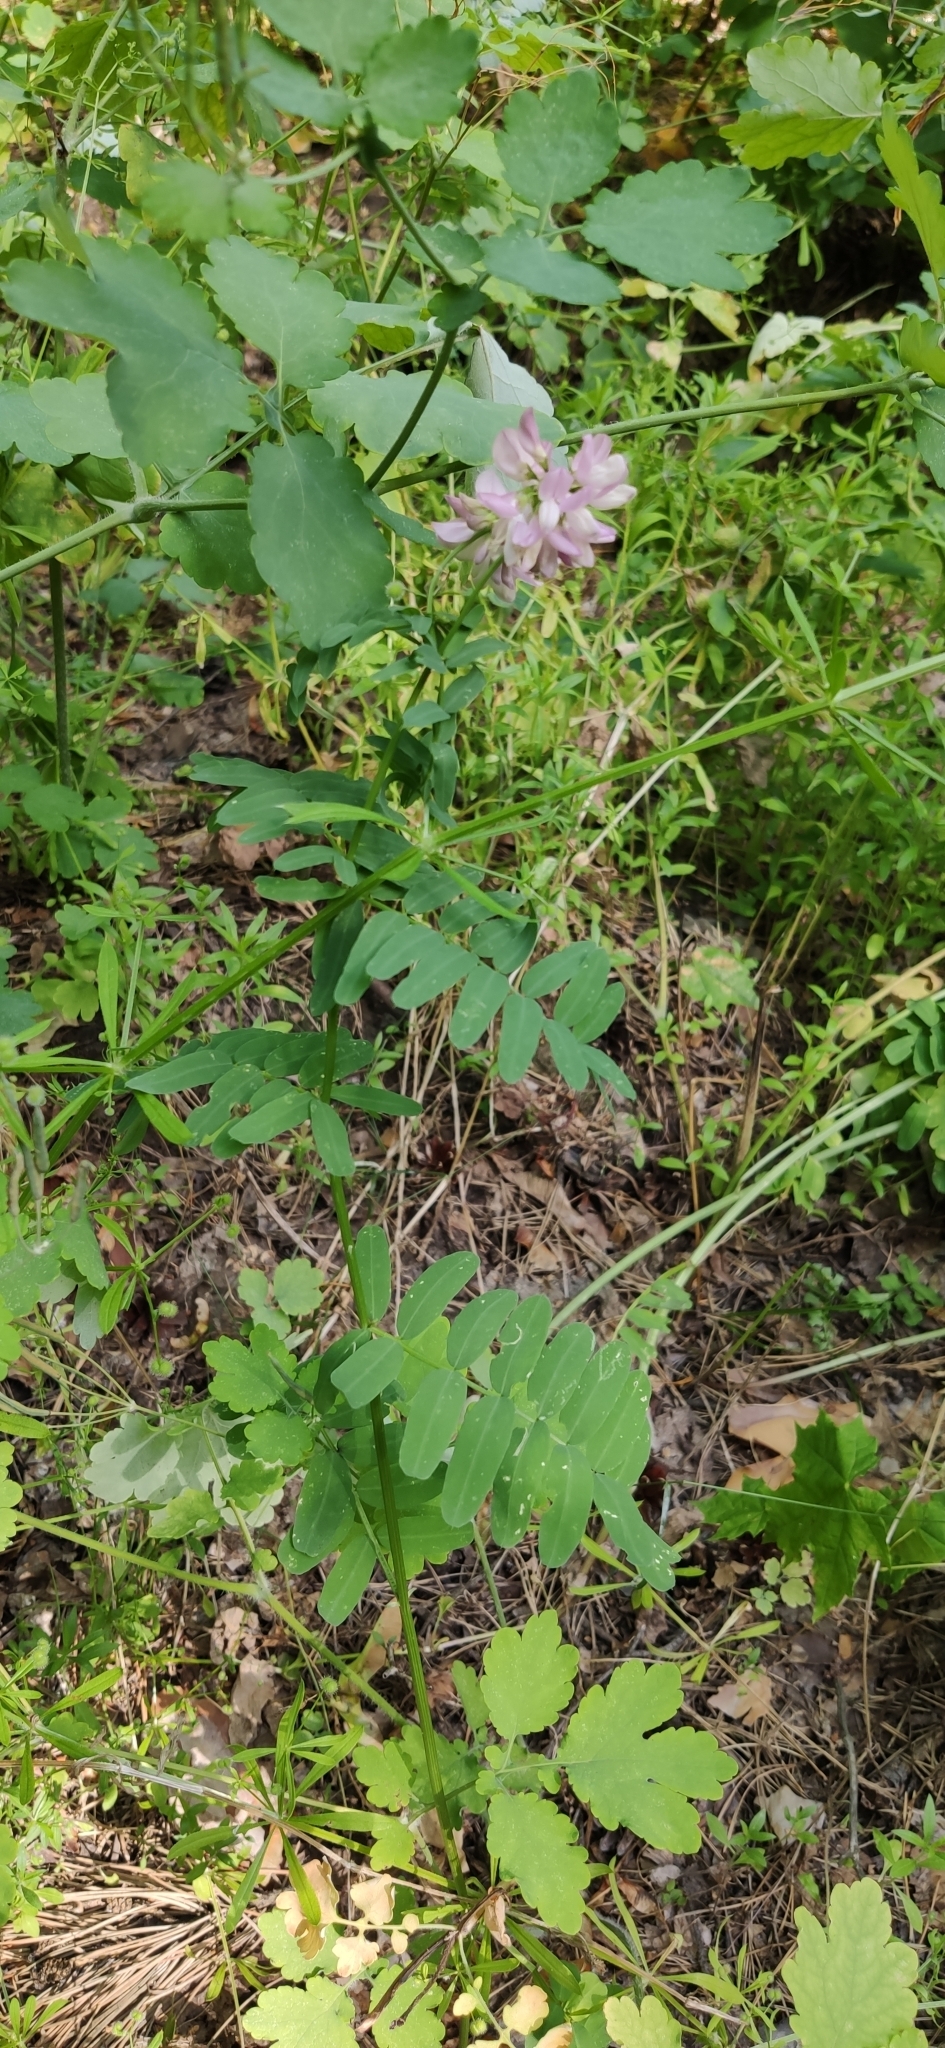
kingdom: Plantae
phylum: Tracheophyta
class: Magnoliopsida
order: Fabales
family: Fabaceae
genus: Coronilla
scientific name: Coronilla varia
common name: Crownvetch
